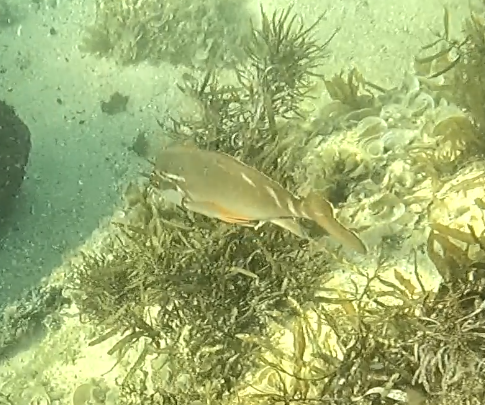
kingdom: Animalia
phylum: Chordata
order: Perciformes
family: Latridae
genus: Morwong
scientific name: Morwong fuscus
